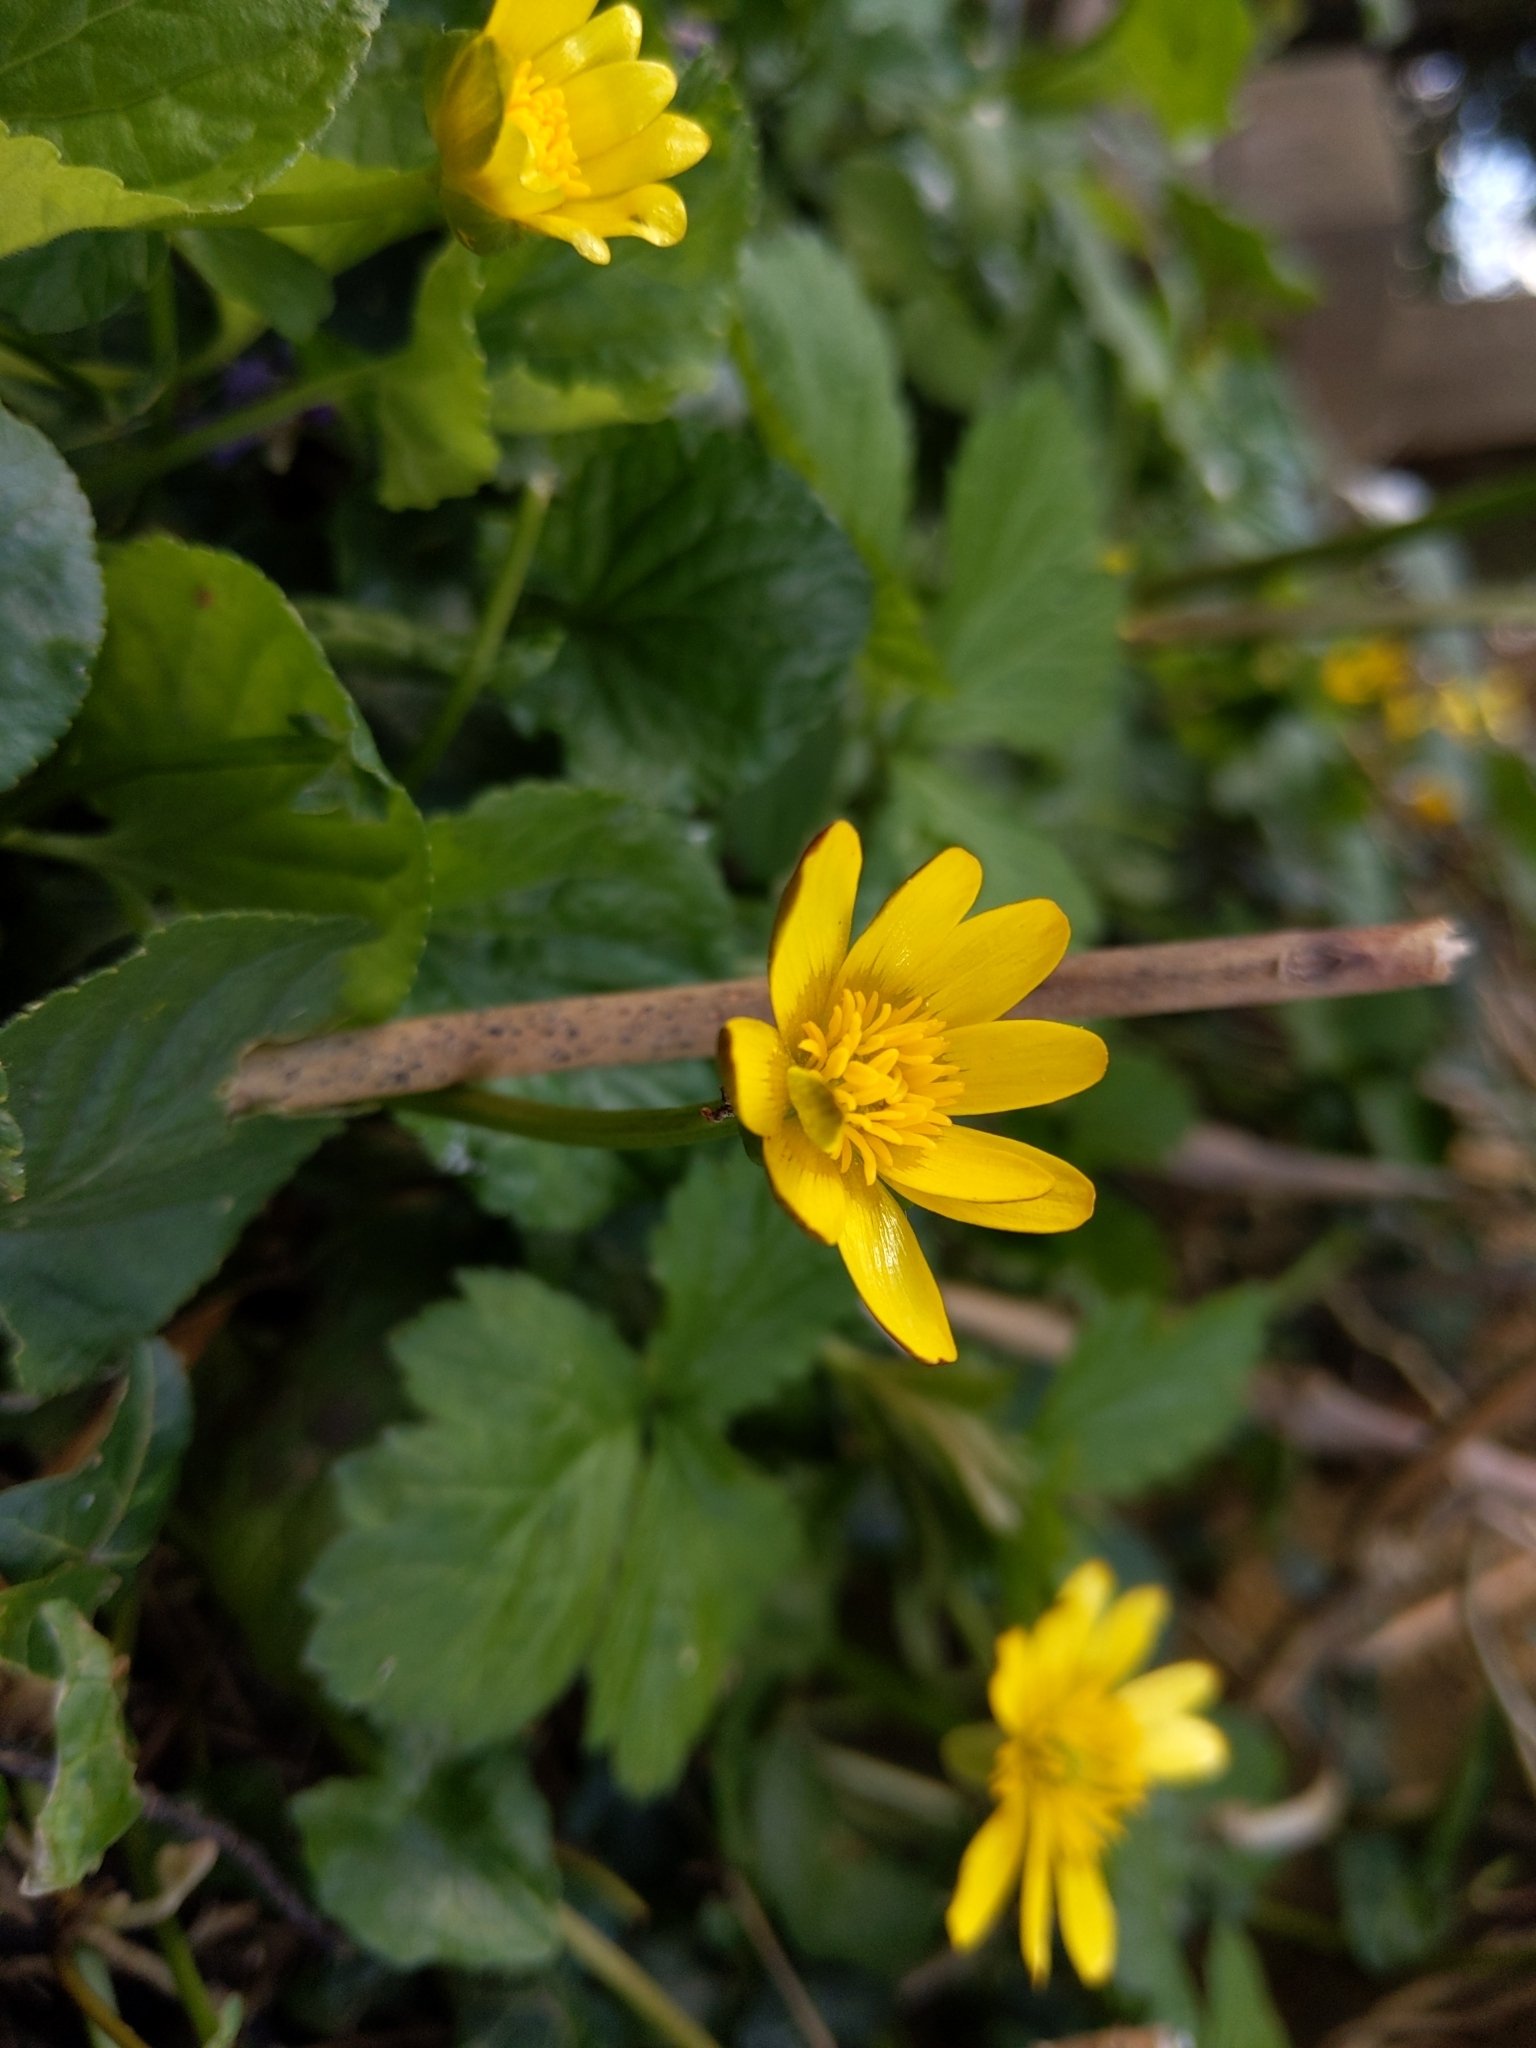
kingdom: Plantae
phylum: Tracheophyta
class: Magnoliopsida
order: Ranunculales
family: Ranunculaceae
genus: Ficaria
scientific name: Ficaria verna
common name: Lesser celandine
